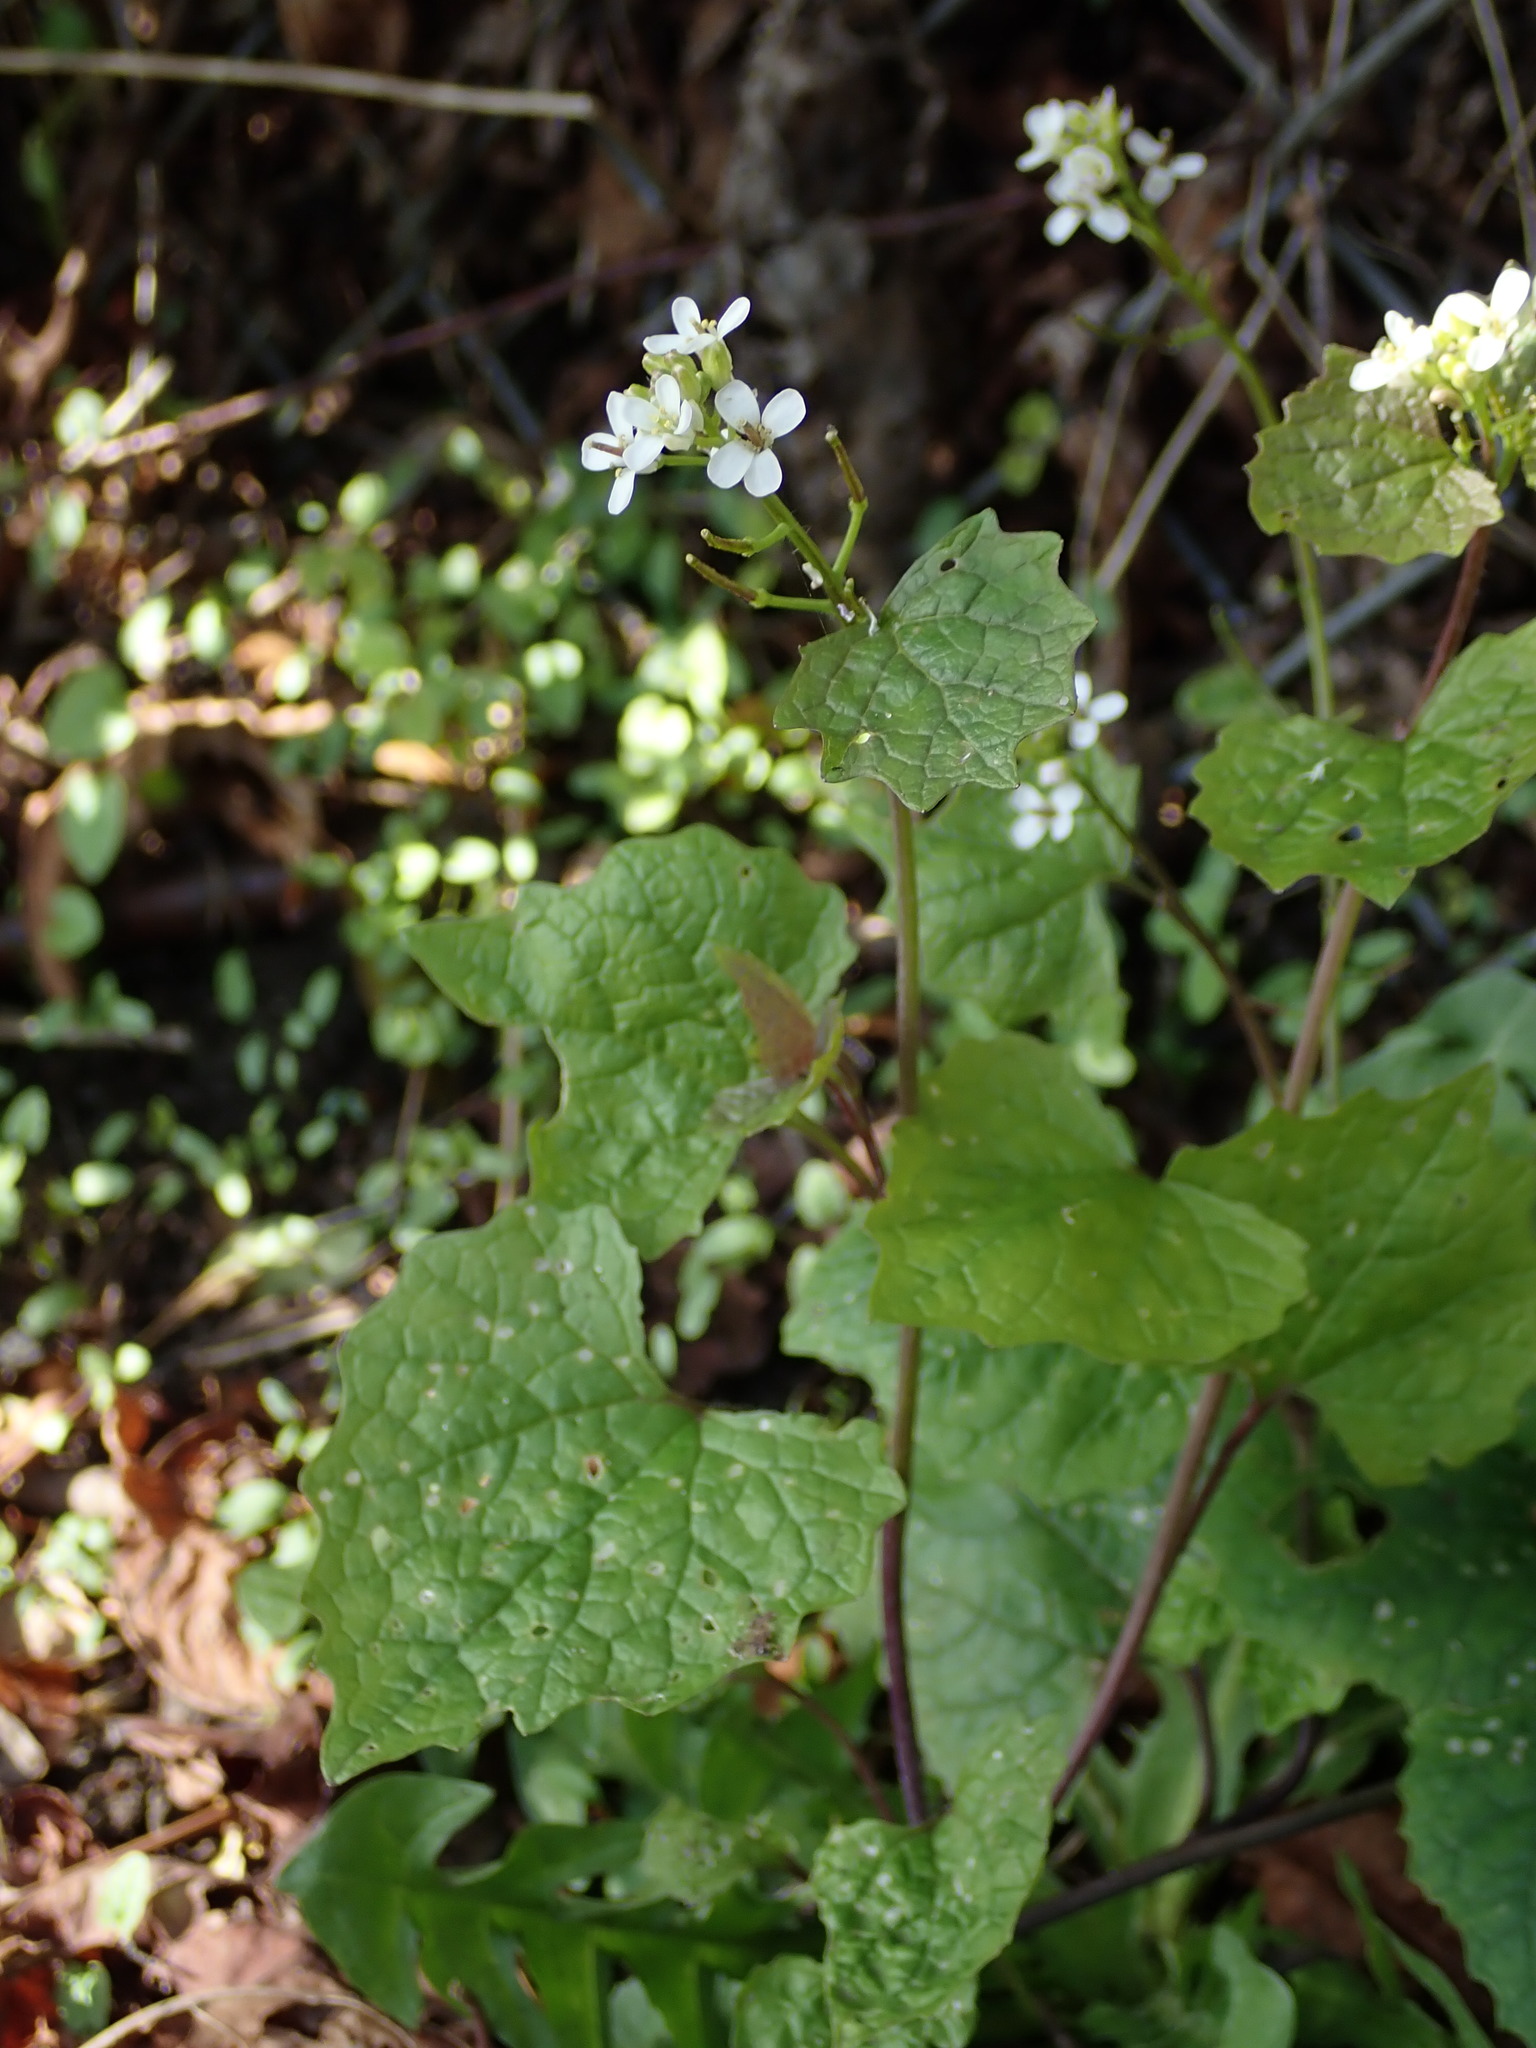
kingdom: Plantae
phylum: Tracheophyta
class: Magnoliopsida
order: Brassicales
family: Brassicaceae
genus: Alliaria
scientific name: Alliaria petiolata
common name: Garlic mustard
